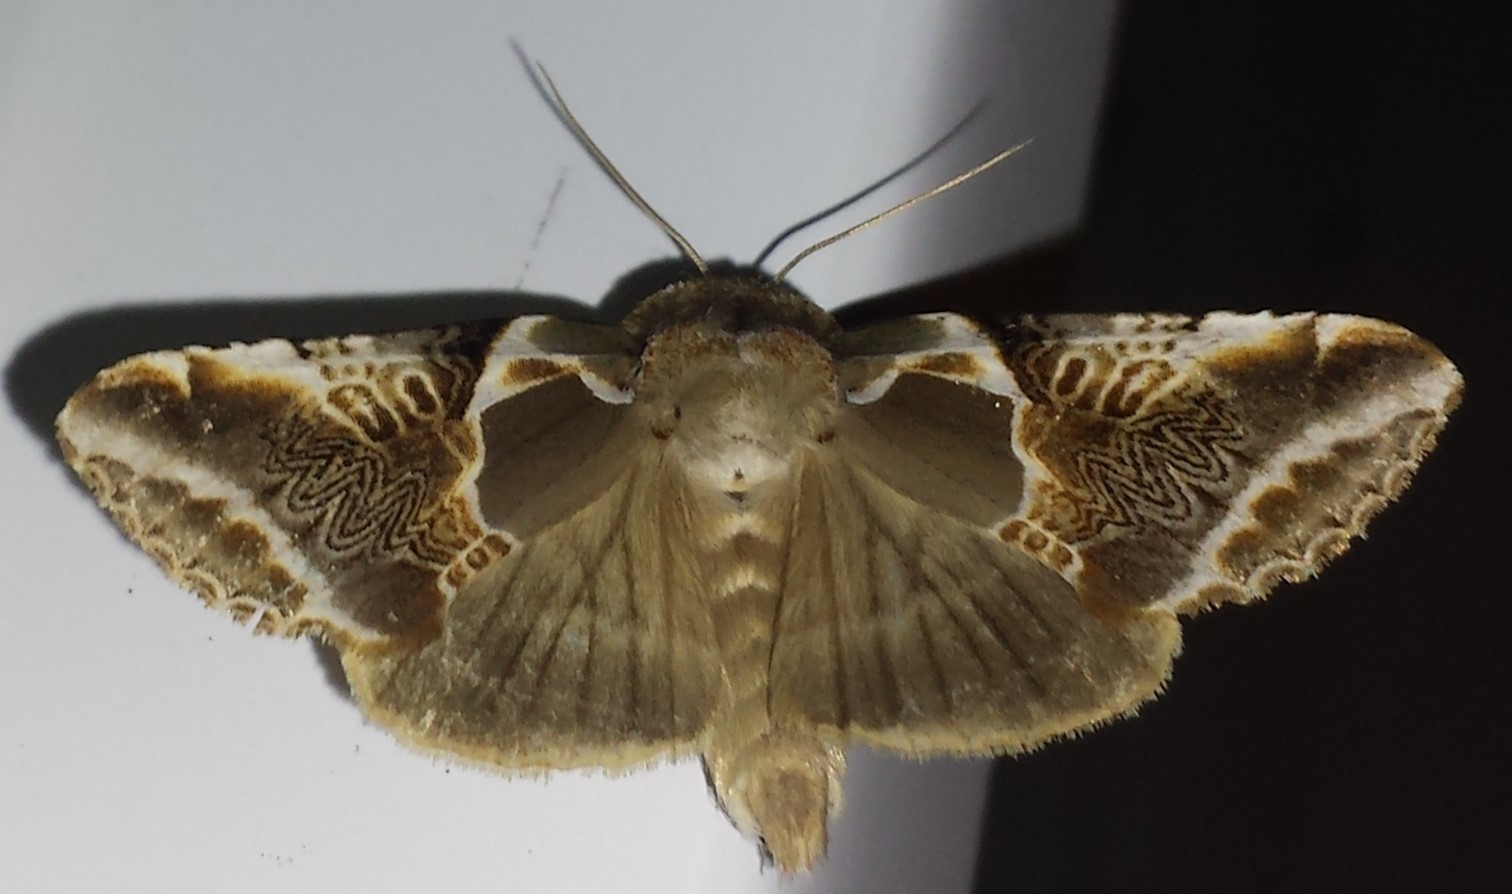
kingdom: Animalia
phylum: Arthropoda
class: Insecta
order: Lepidoptera
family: Drepanidae
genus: Habrosyne
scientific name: Habrosyne scripta
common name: Lettered habrosyne moth
